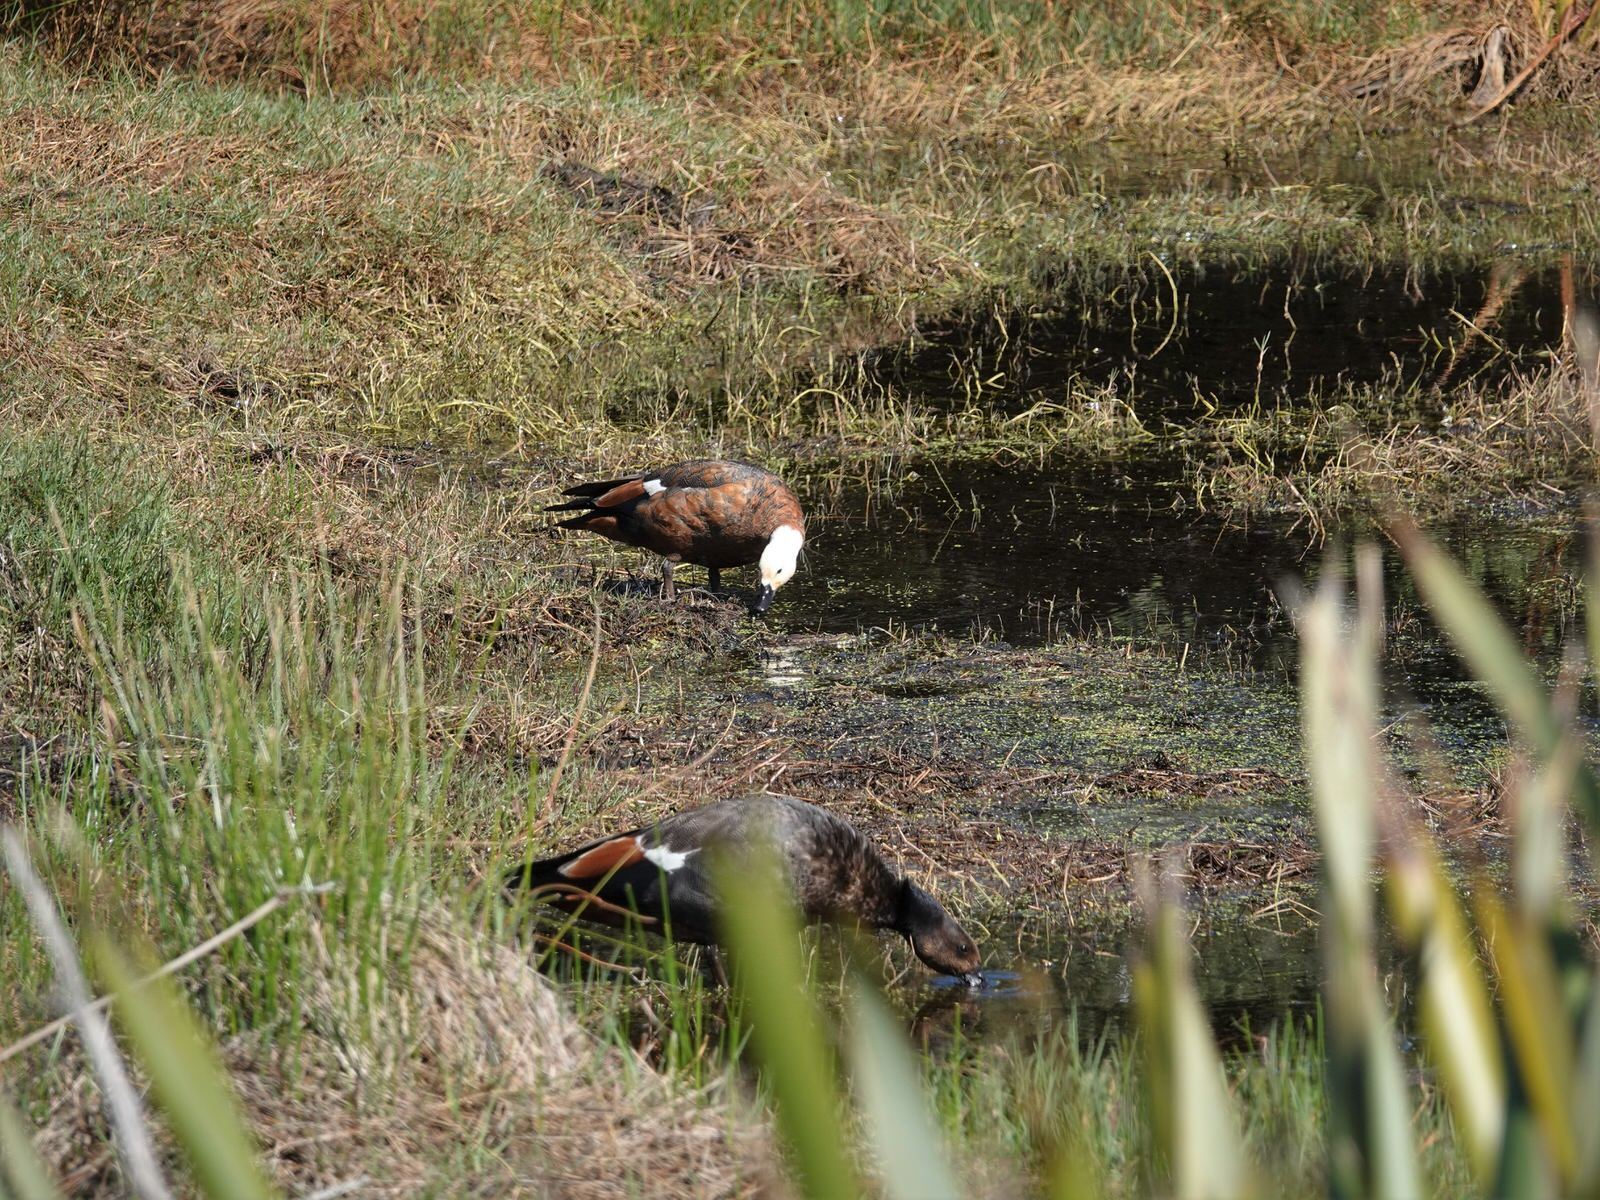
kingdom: Animalia
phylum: Chordata
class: Aves
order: Anseriformes
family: Anatidae
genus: Tadorna
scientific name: Tadorna variegata
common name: Paradise shelduck
